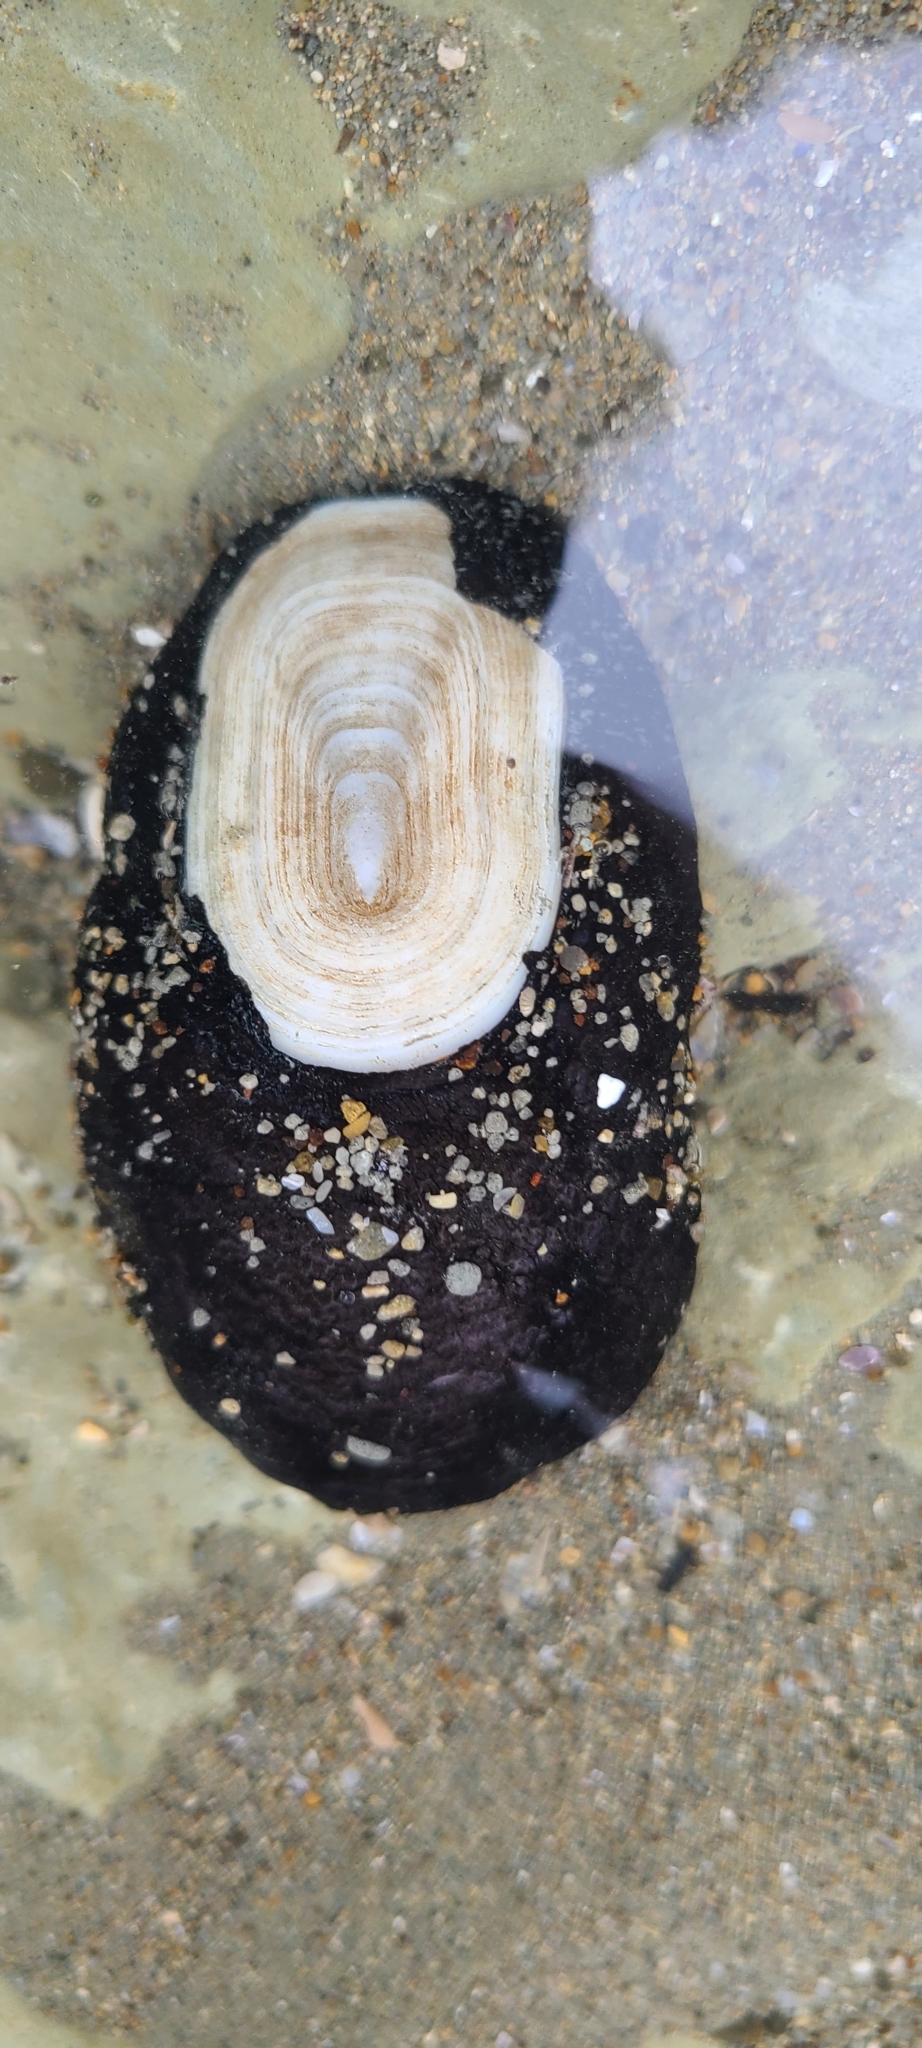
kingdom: Animalia
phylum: Mollusca
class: Gastropoda
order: Lepetellida
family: Fissurellidae
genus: Scutus
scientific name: Scutus breviculus
